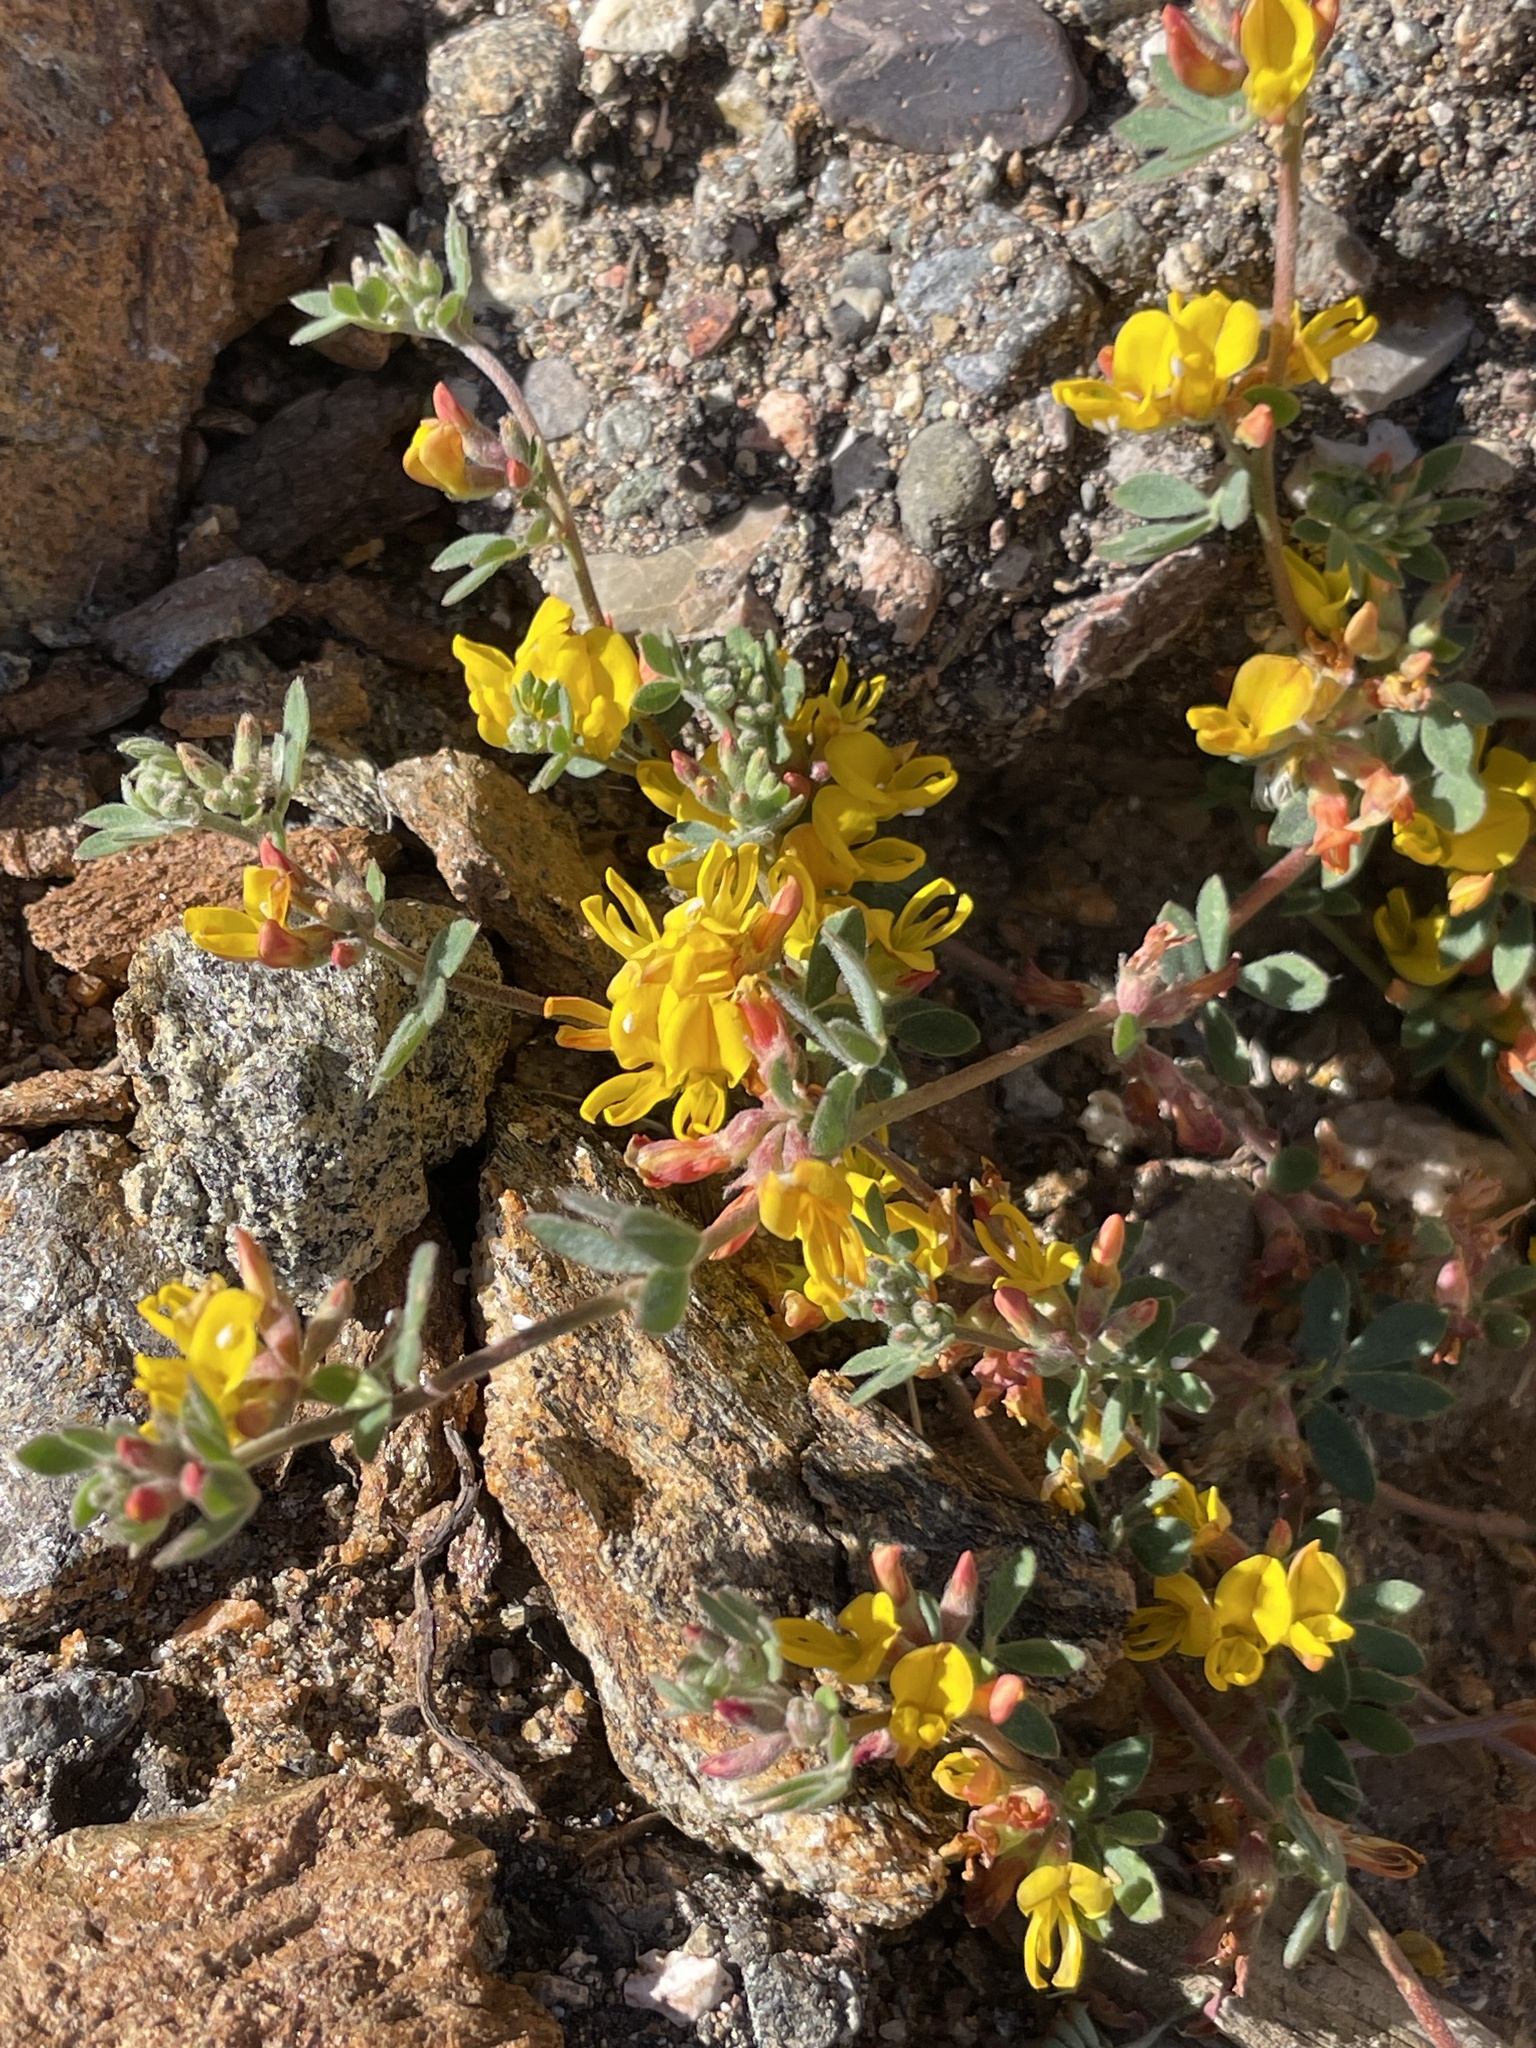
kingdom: Plantae
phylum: Tracheophyta
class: Magnoliopsida
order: Fabales
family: Fabaceae
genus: Acmispon
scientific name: Acmispon micranthus
